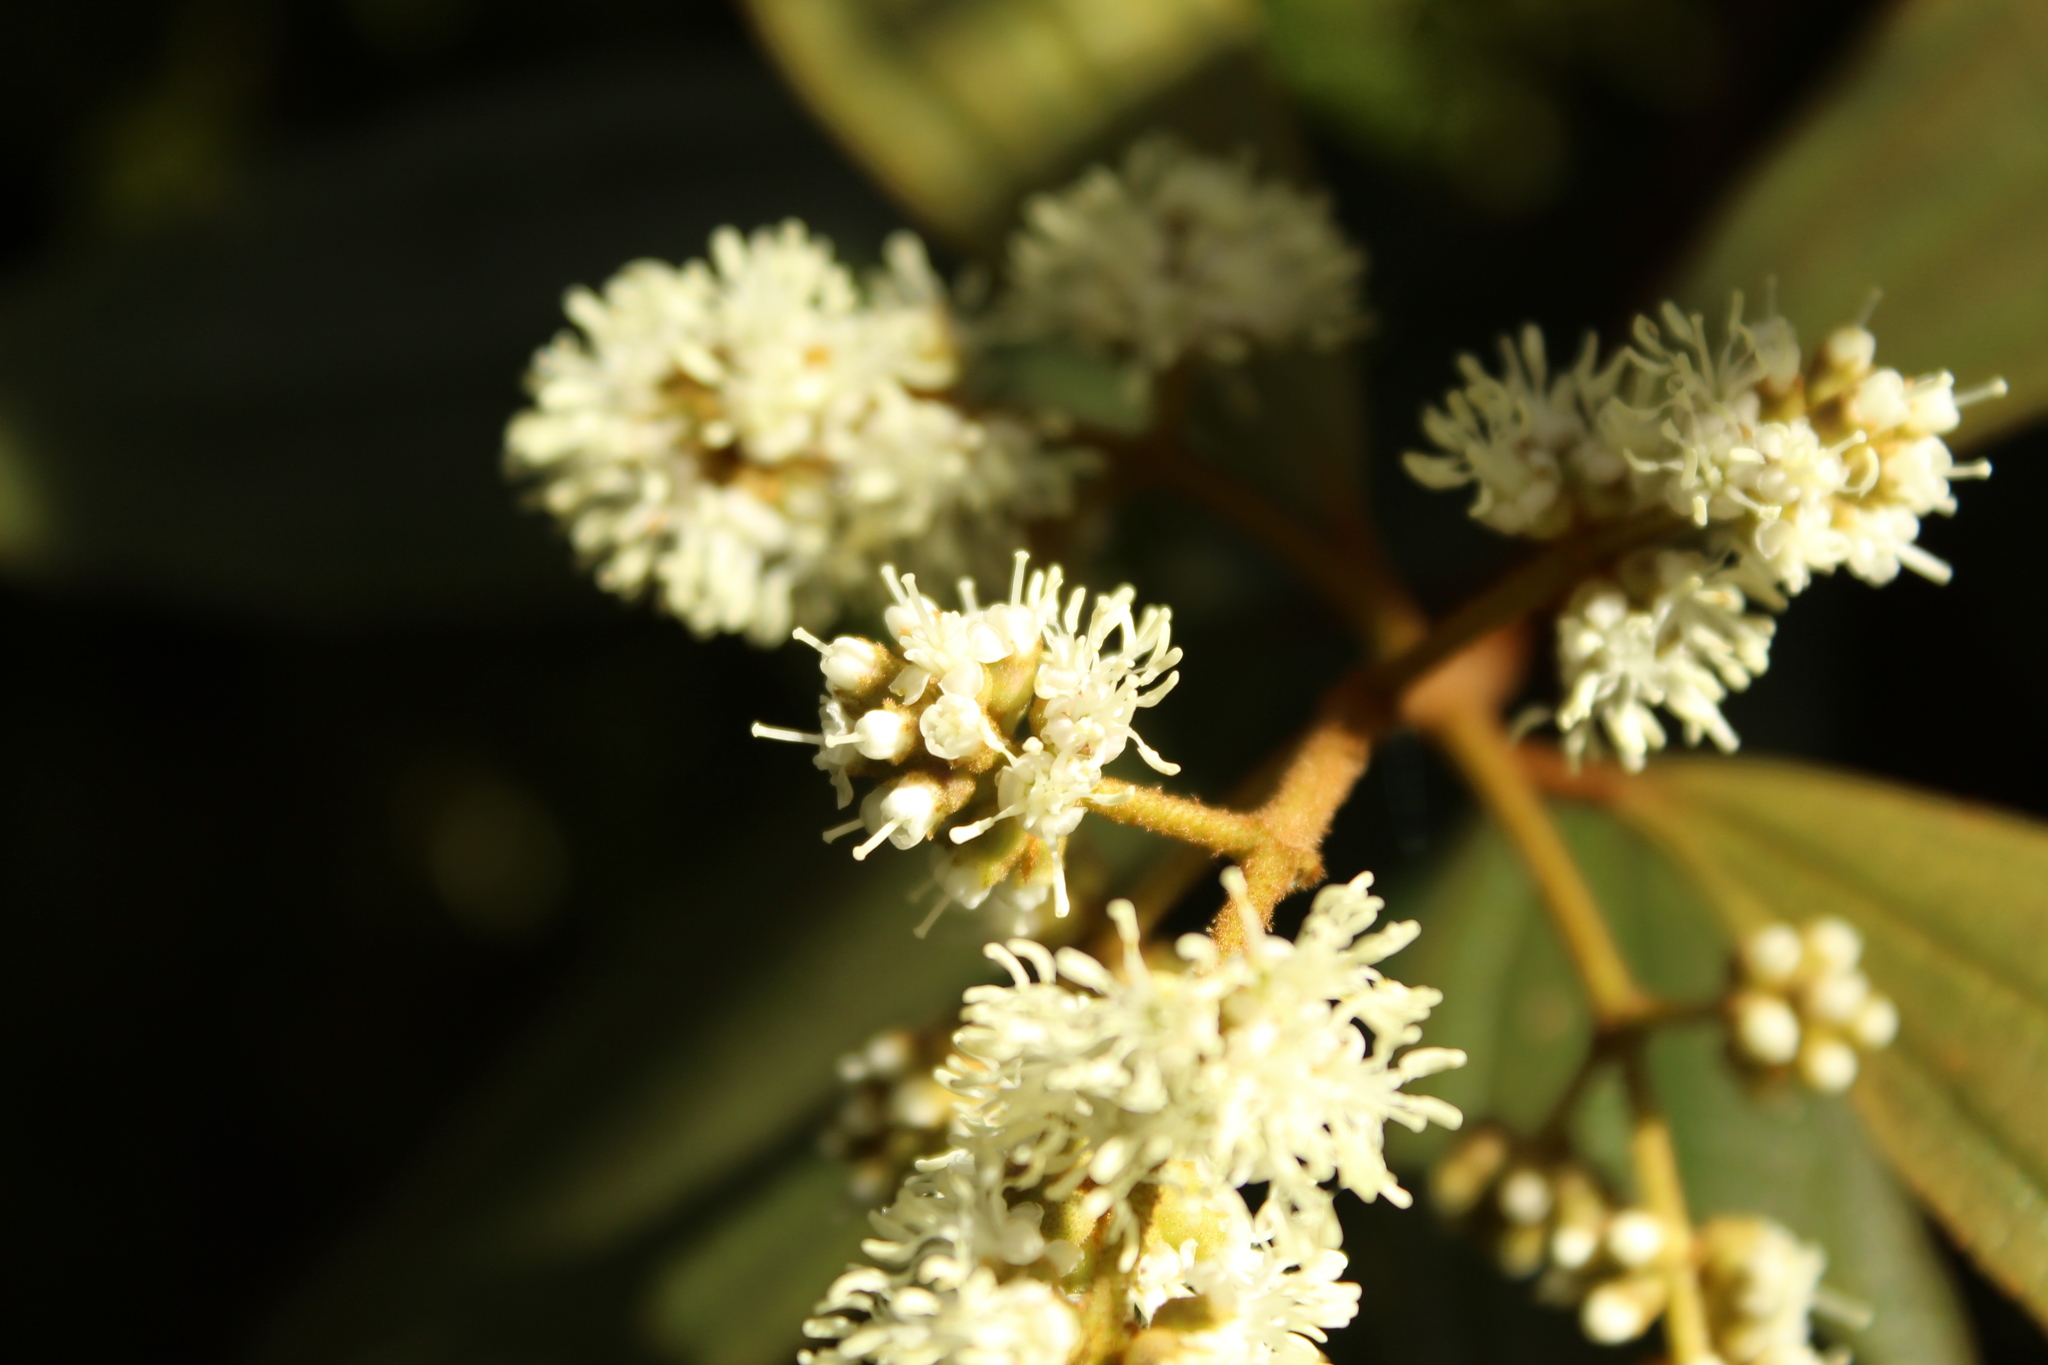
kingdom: Plantae
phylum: Tracheophyta
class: Magnoliopsida
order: Myrtales
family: Melastomataceae
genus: Miconia
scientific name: Miconia cataractae
